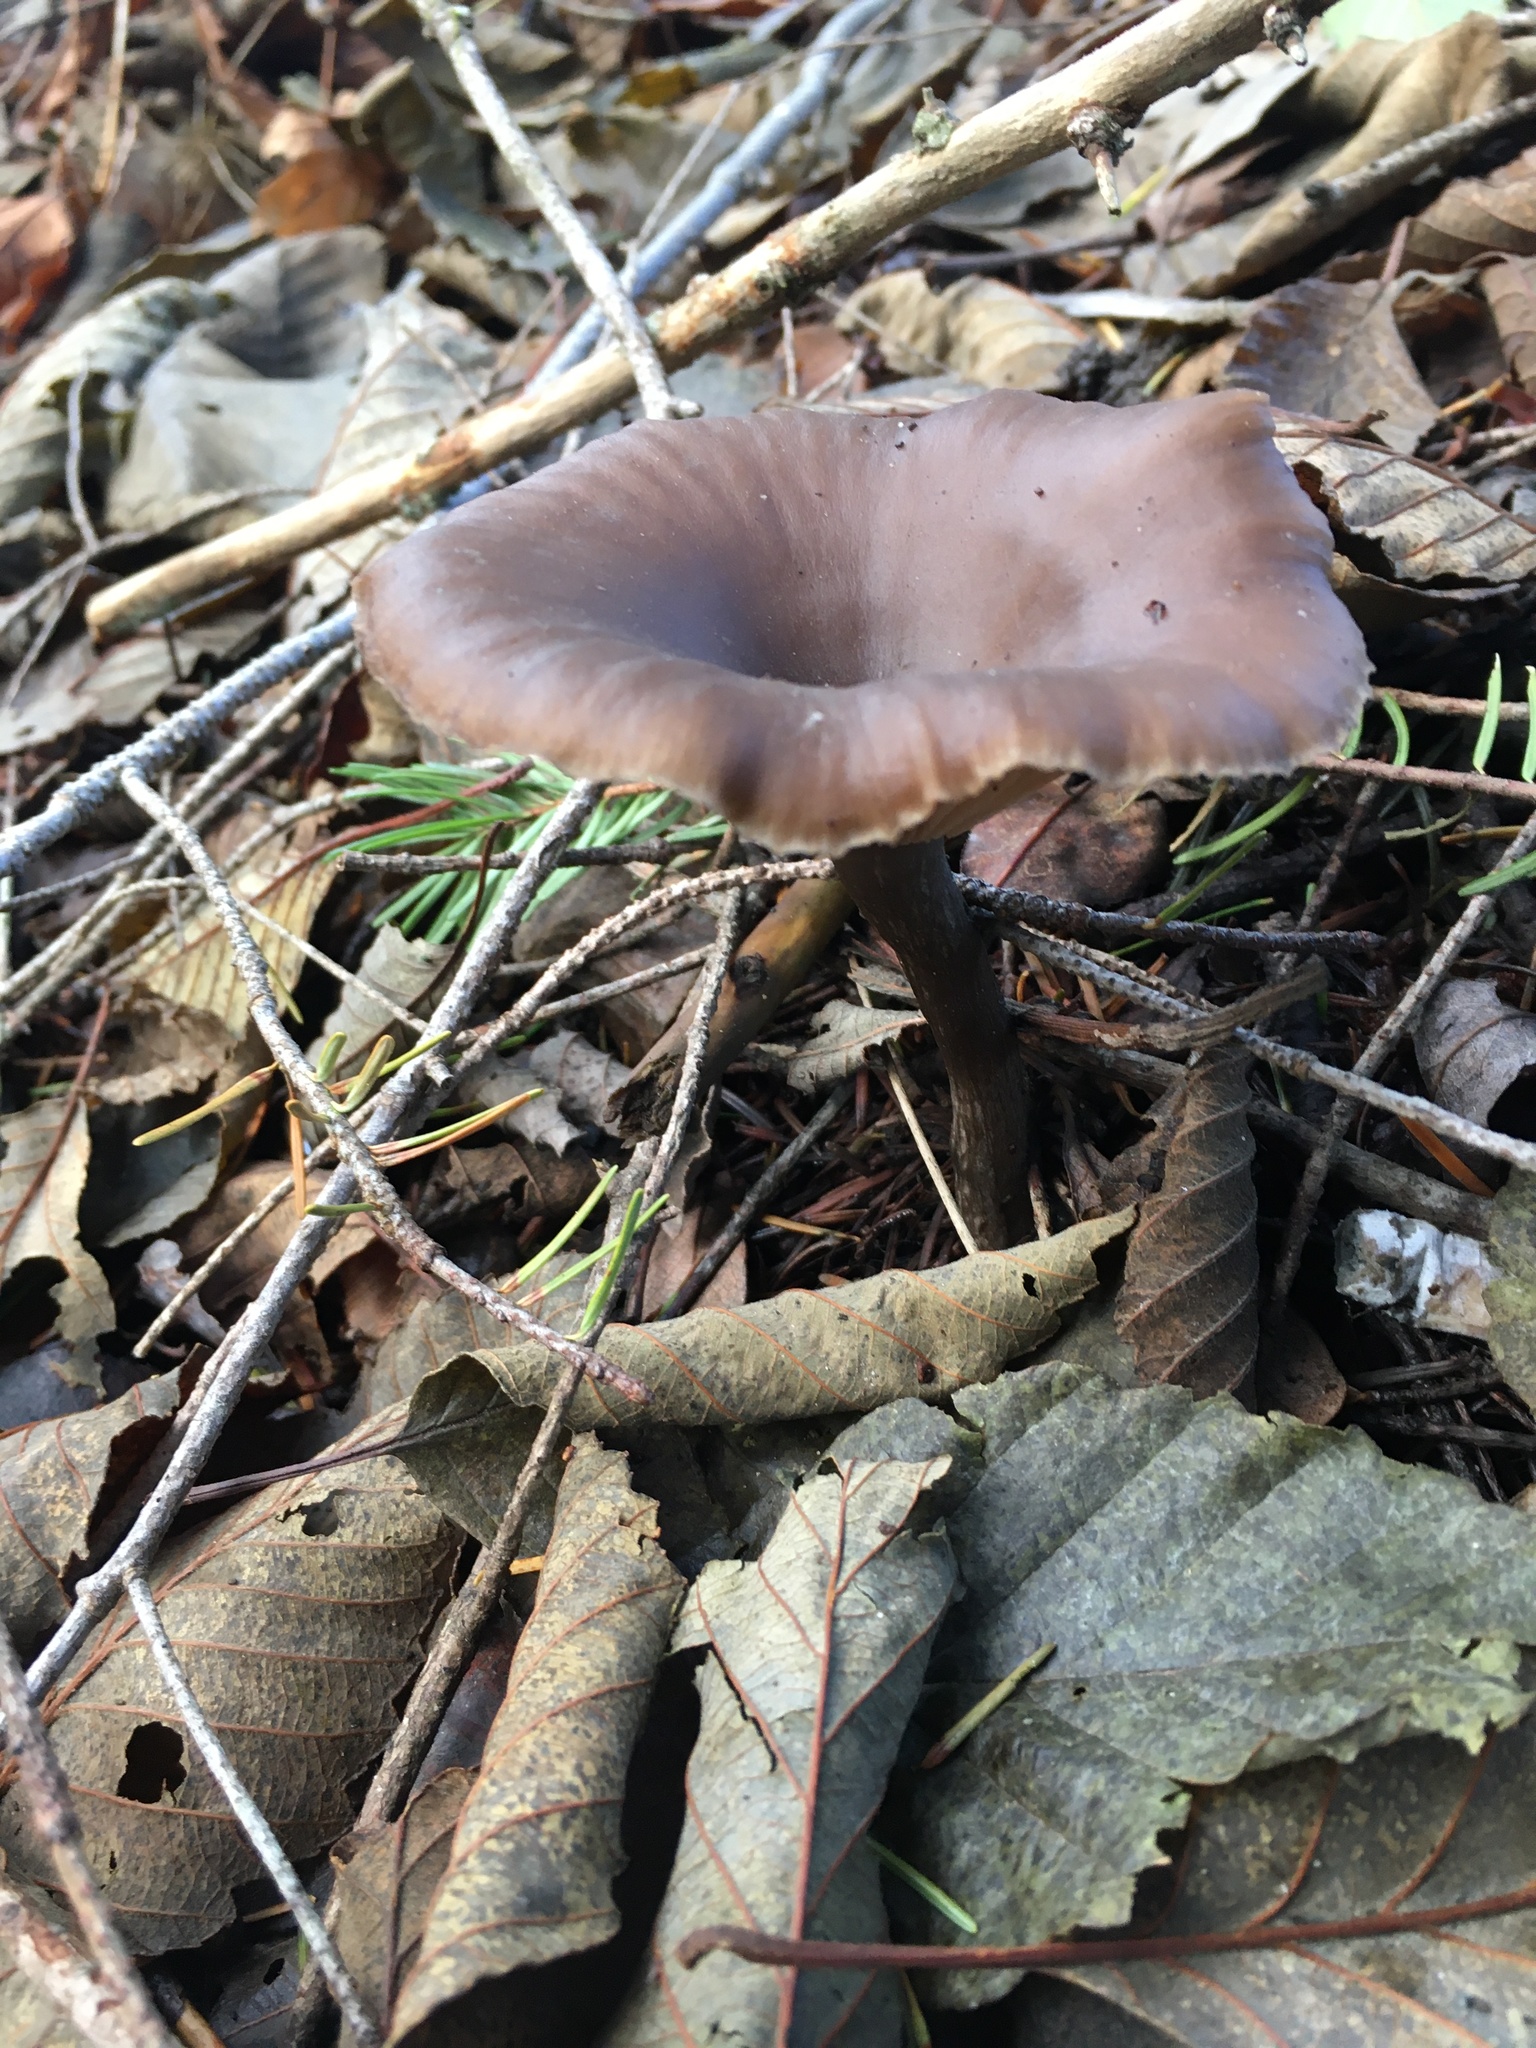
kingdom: Fungi
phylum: Basidiomycota
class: Agaricomycetes
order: Agaricales
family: Pseudoclitocybaceae
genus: Pseudoclitocybe
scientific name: Pseudoclitocybe cyathiformis
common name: Goblet
